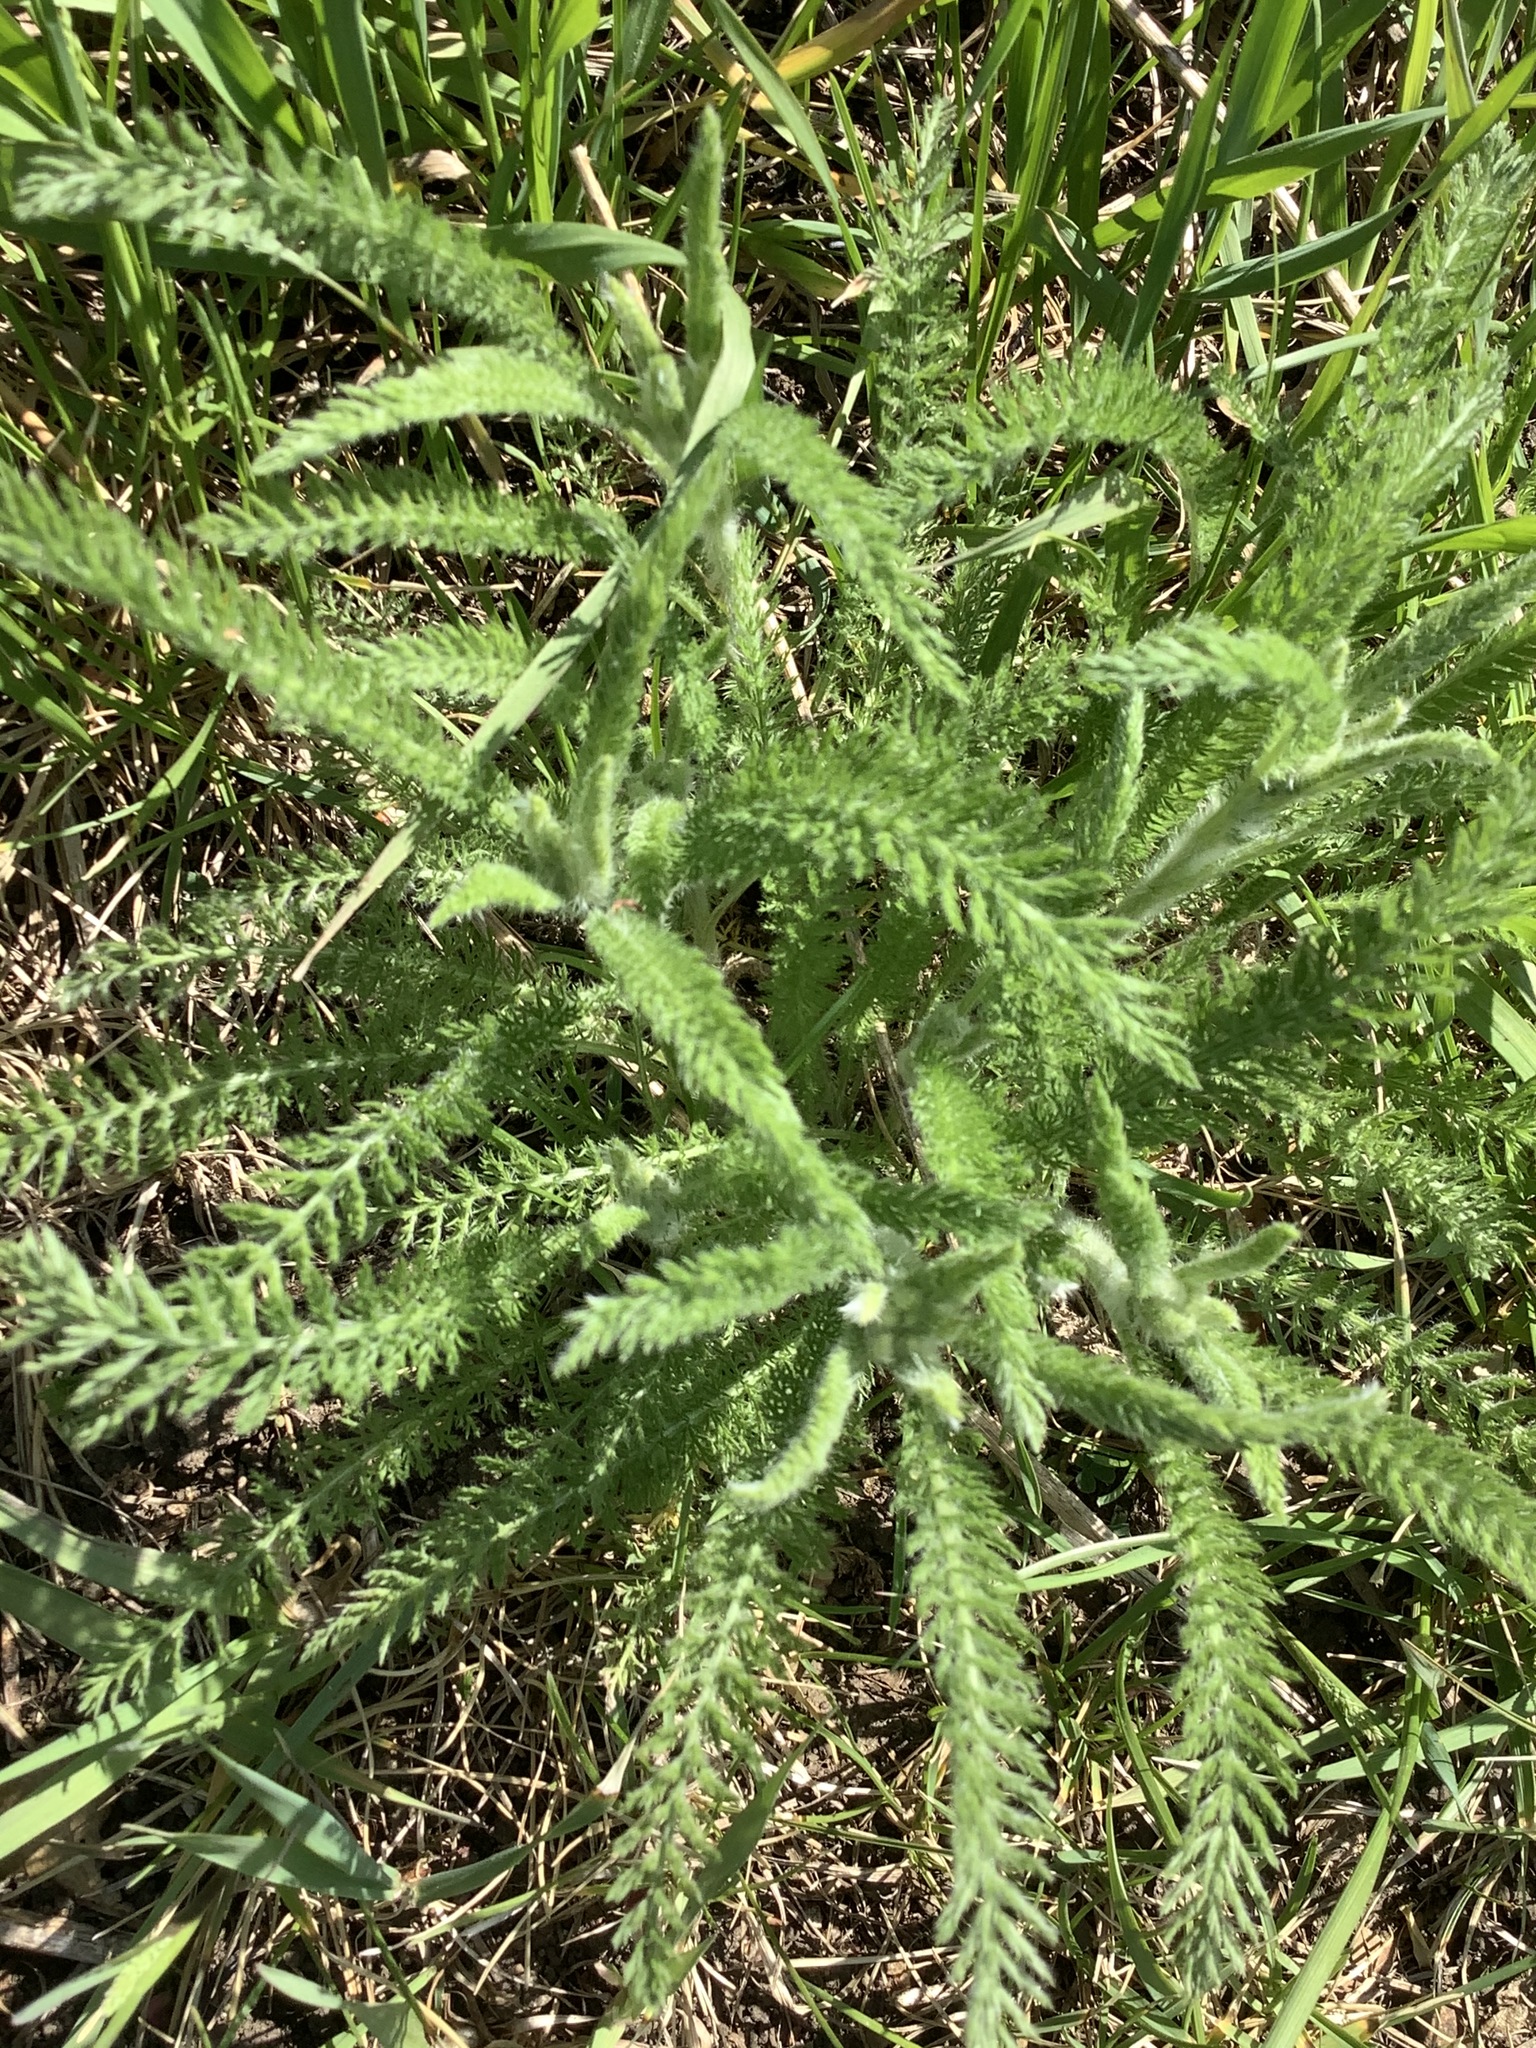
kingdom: Plantae
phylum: Tracheophyta
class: Magnoliopsida
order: Asterales
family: Asteraceae
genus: Achillea
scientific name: Achillea millefolium
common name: Yarrow
